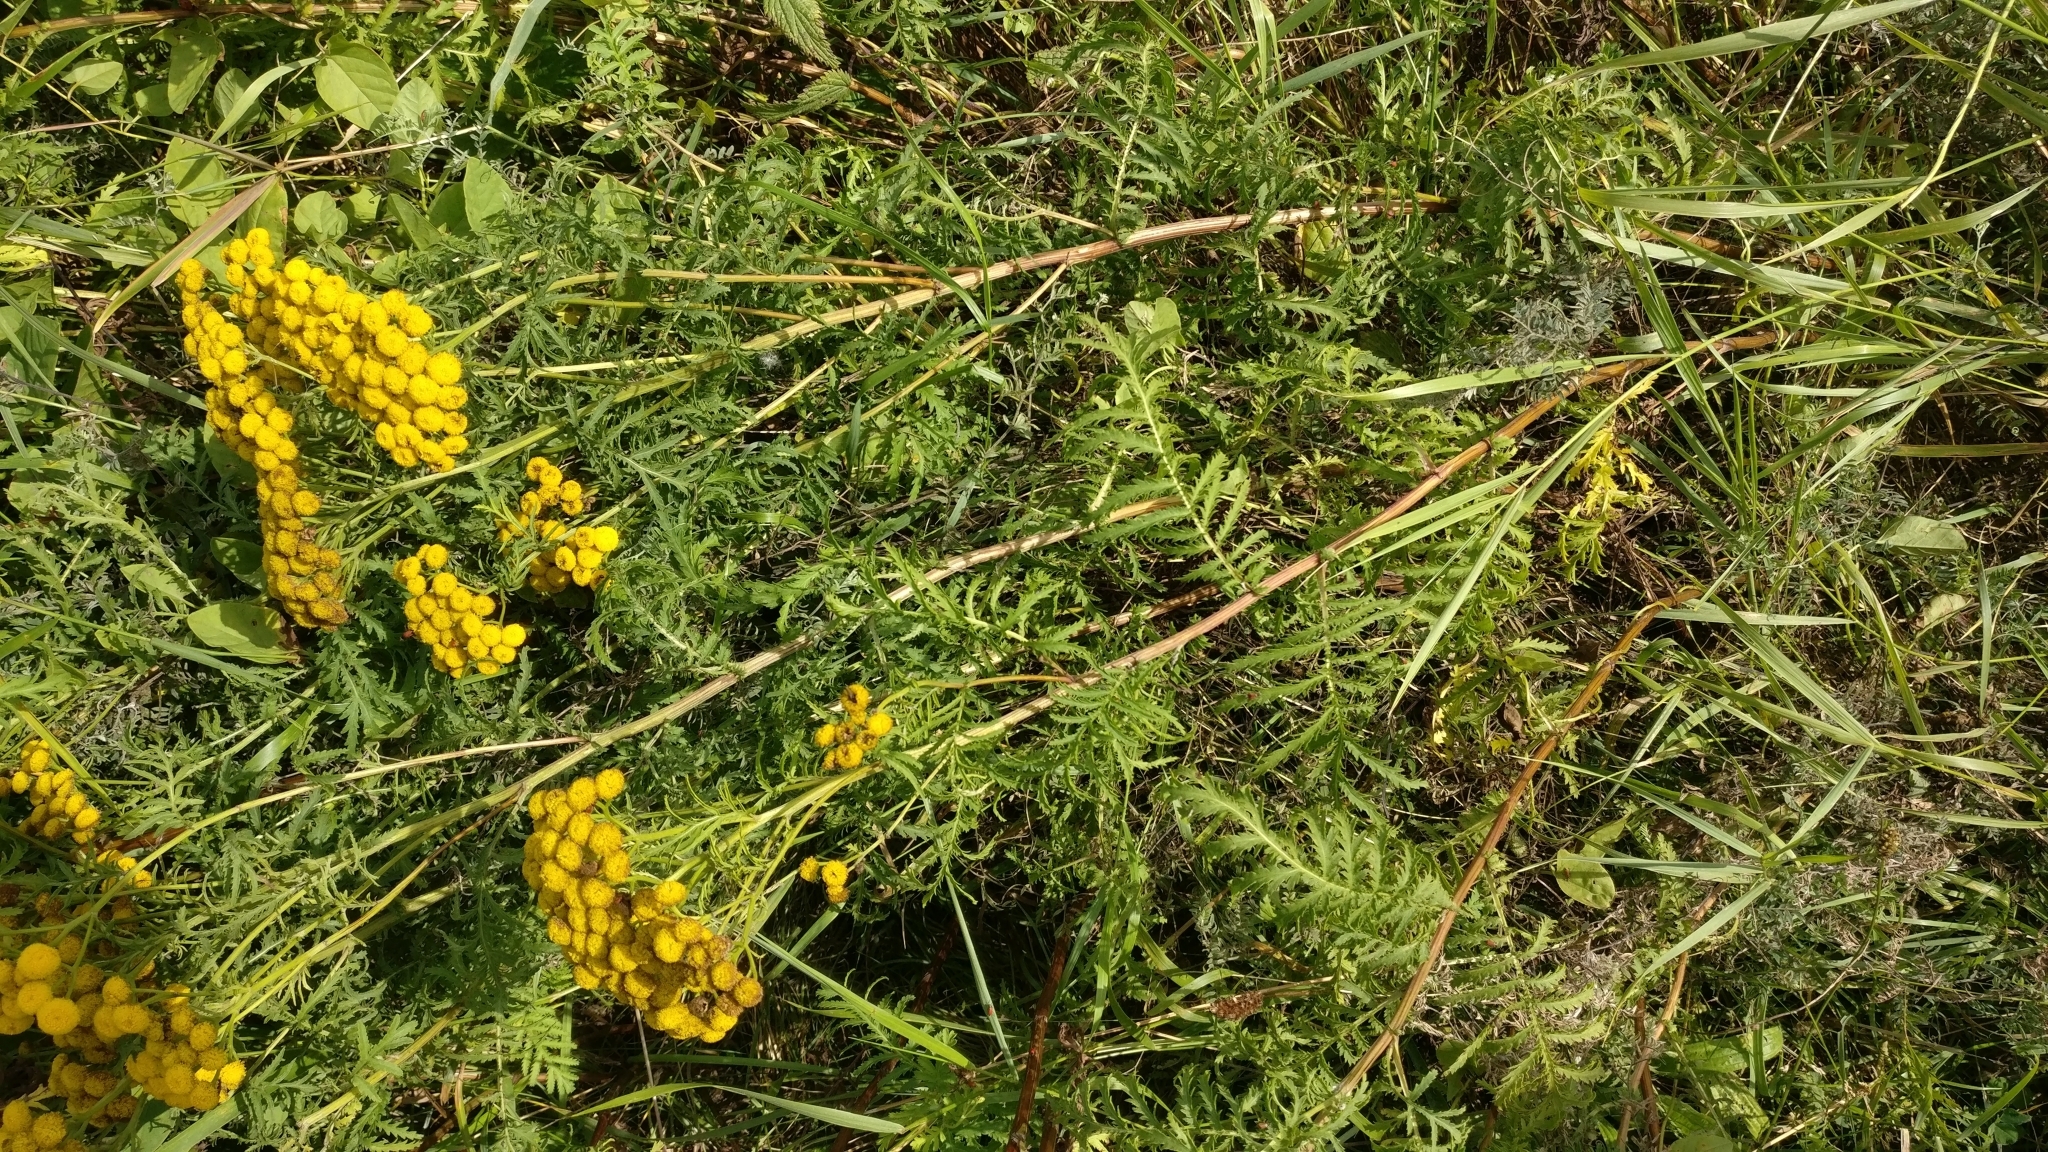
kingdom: Plantae
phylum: Tracheophyta
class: Magnoliopsida
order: Asterales
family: Asteraceae
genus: Tanacetum
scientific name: Tanacetum vulgare
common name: Common tansy
